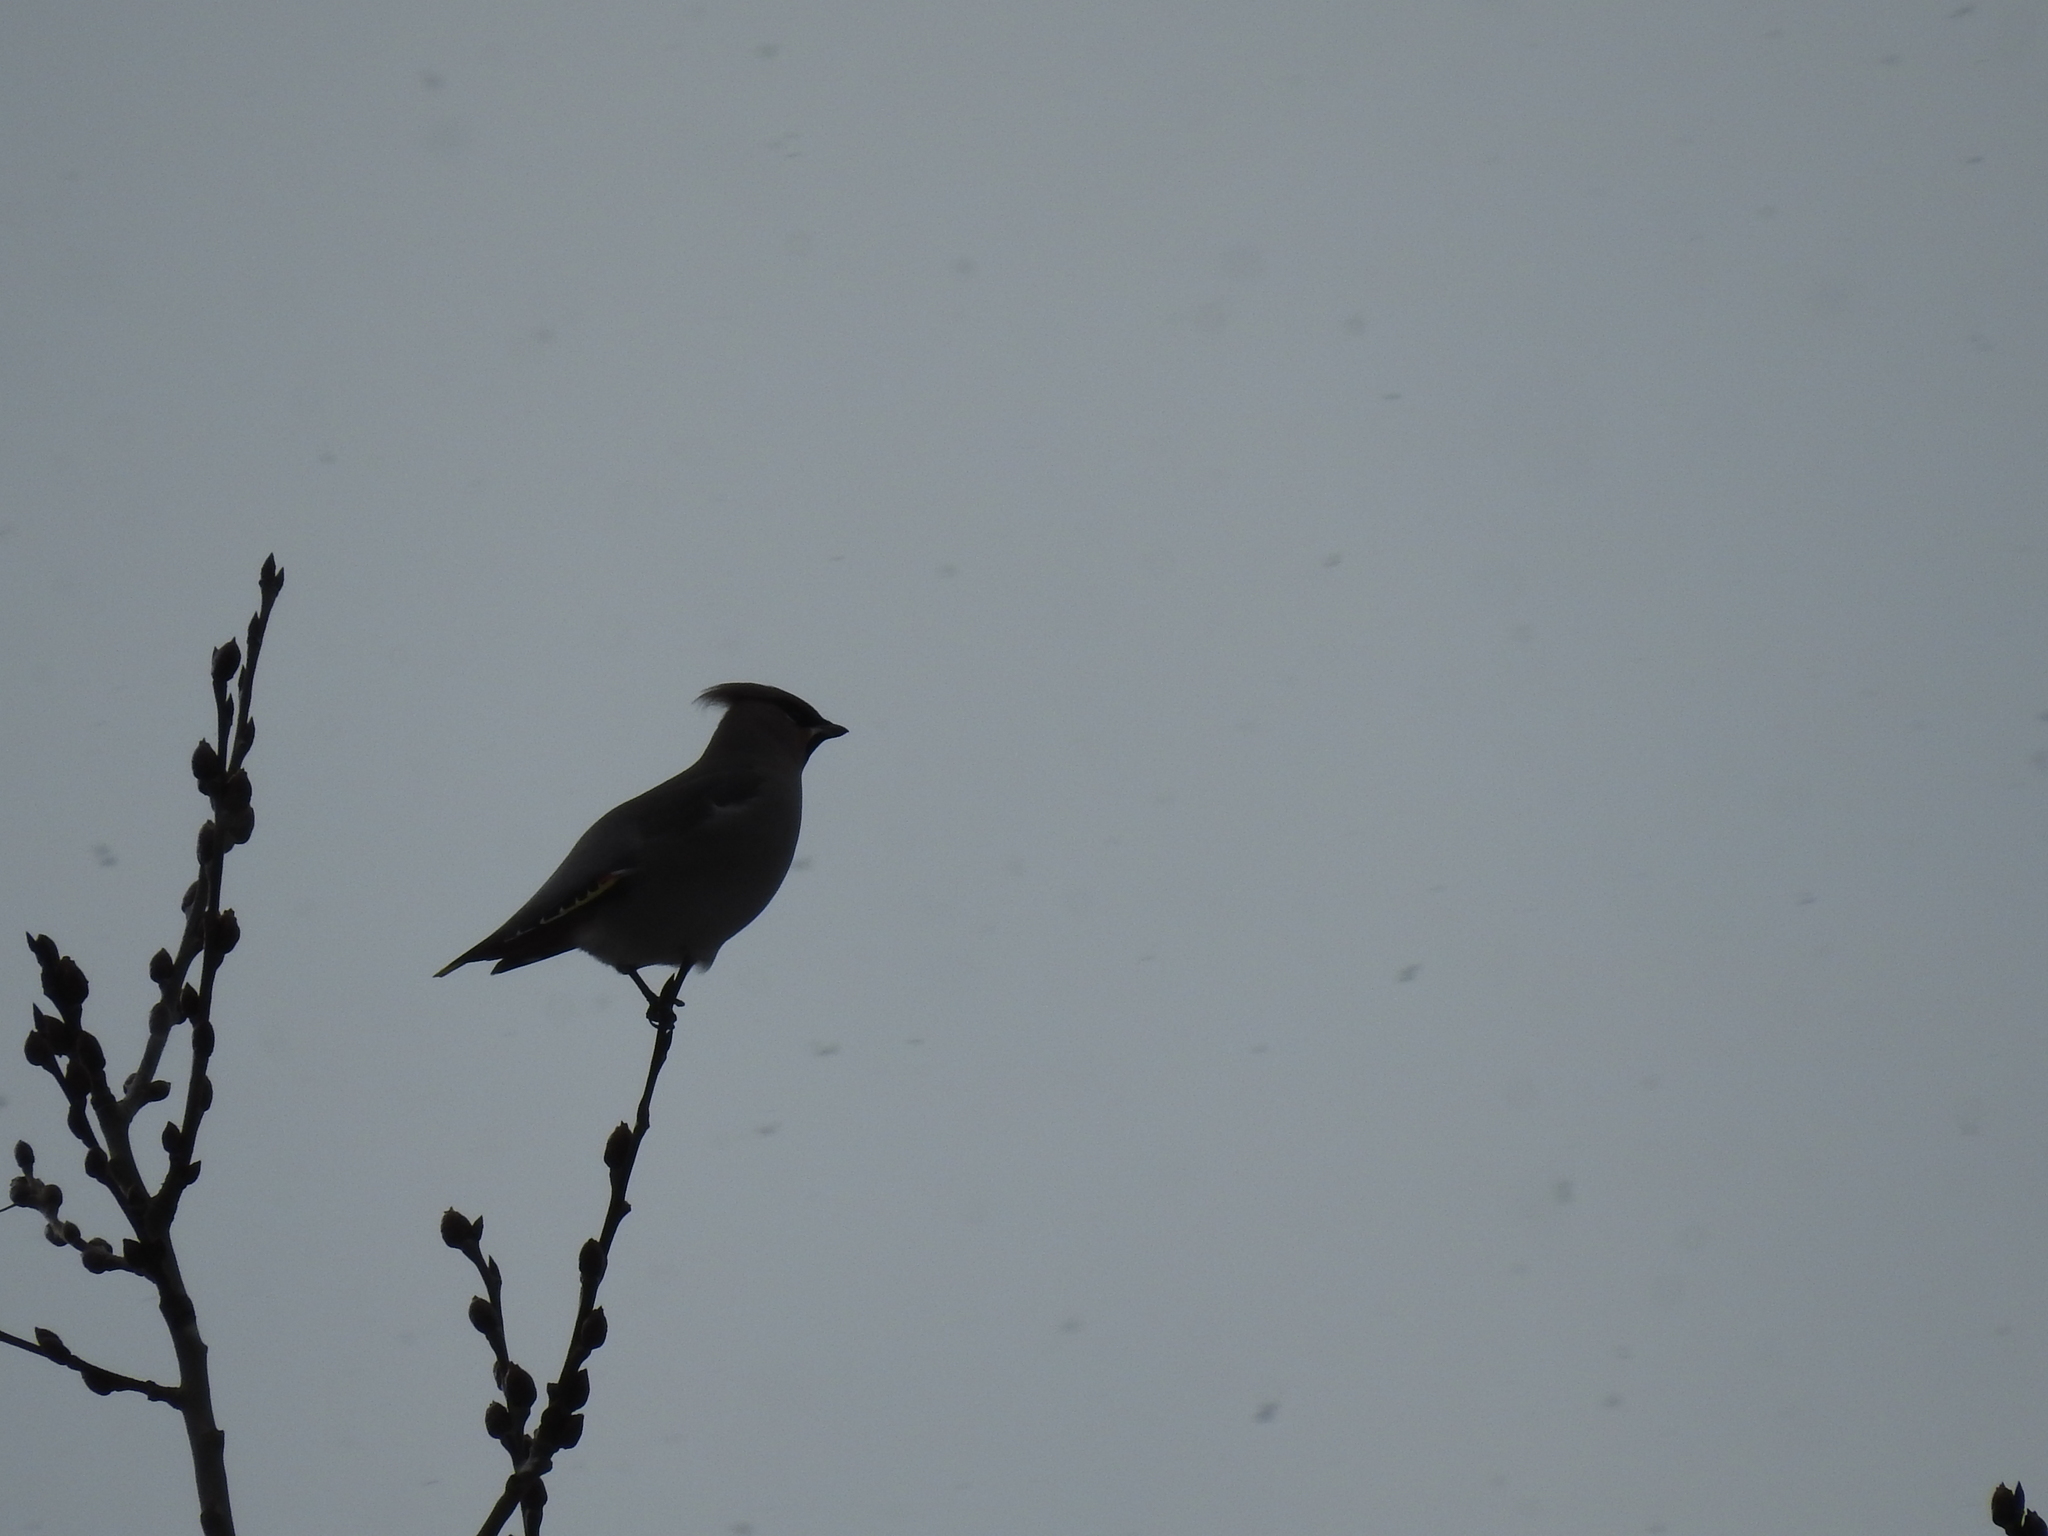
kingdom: Animalia
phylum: Chordata
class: Aves
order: Passeriformes
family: Bombycillidae
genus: Bombycilla
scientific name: Bombycilla garrulus
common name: Bohemian waxwing
